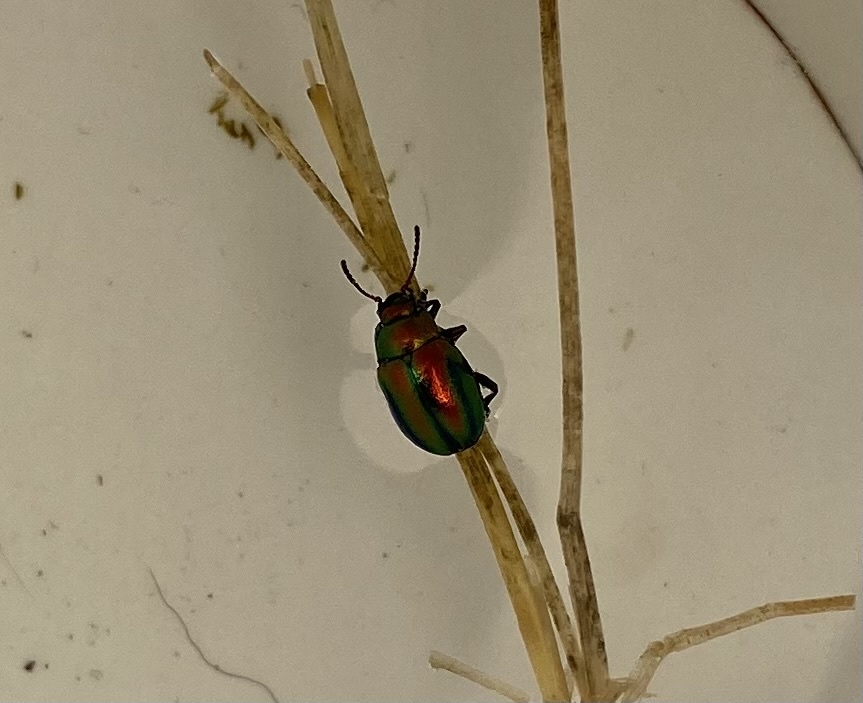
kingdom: Animalia
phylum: Arthropoda
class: Insecta
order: Coleoptera
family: Chrysomelidae
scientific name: Chrysomelidae
